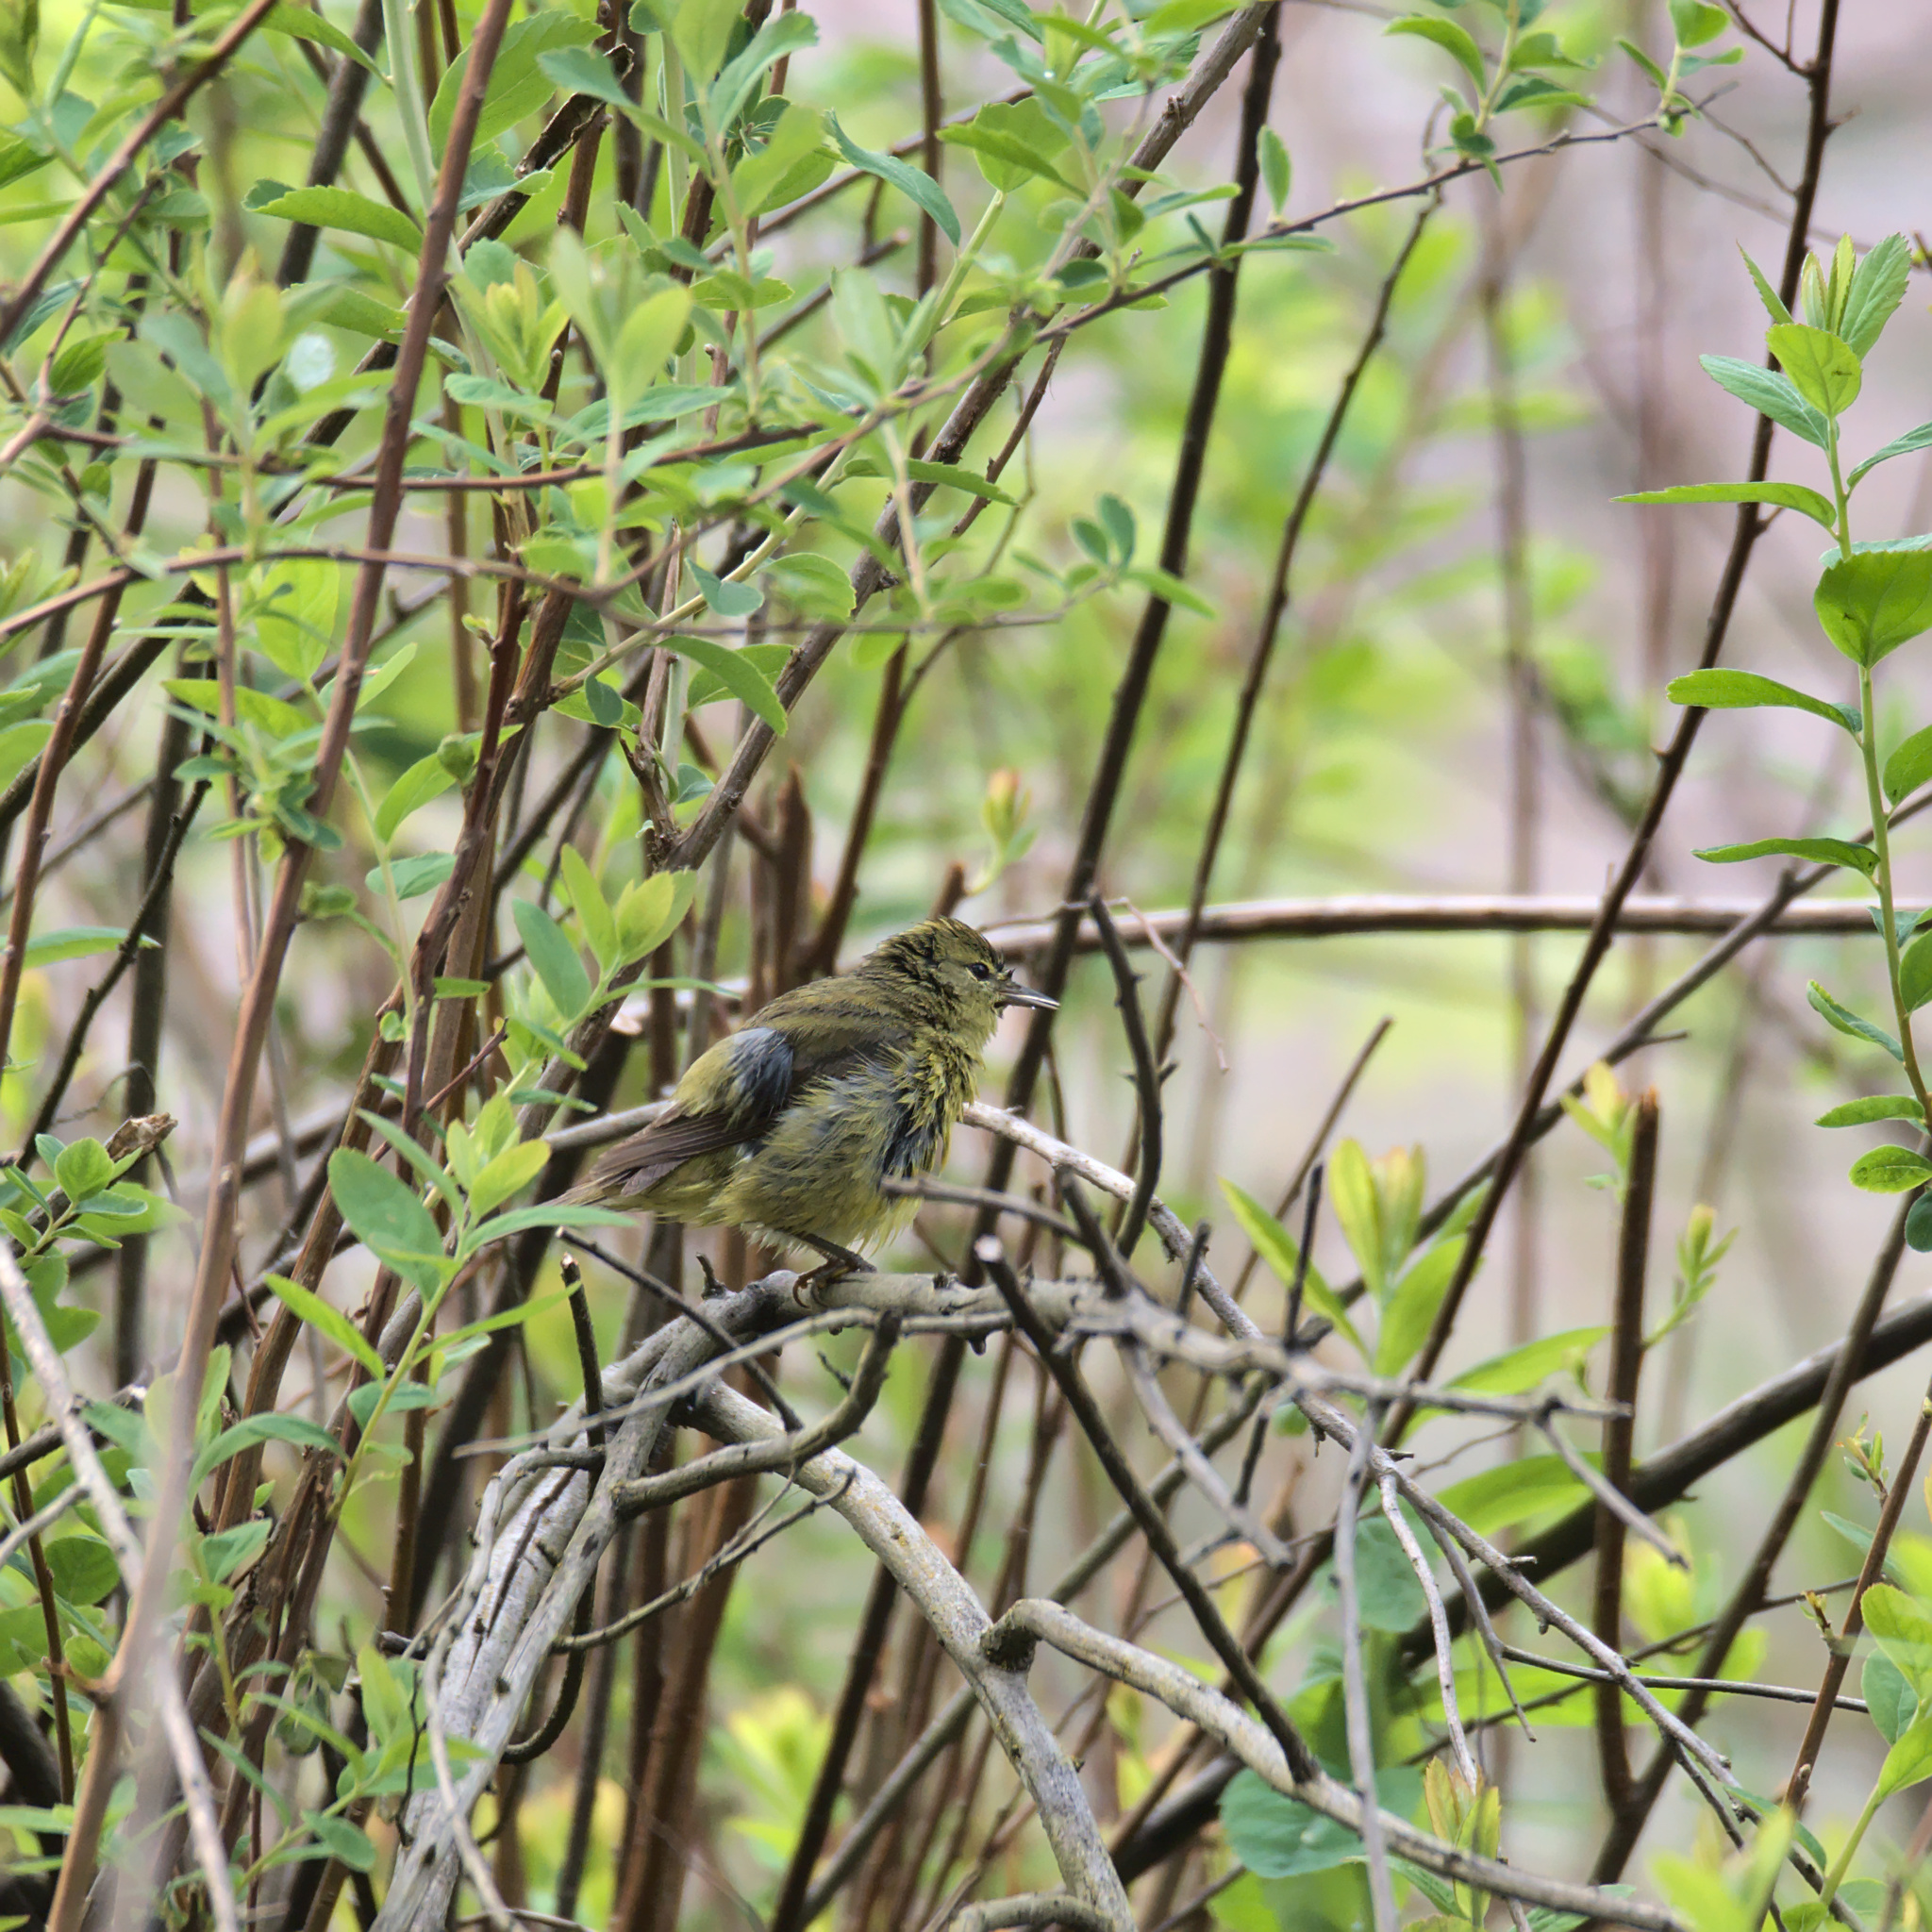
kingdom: Animalia
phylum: Chordata
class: Aves
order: Passeriformes
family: Parulidae
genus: Leiothlypis
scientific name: Leiothlypis celata
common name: Orange-crowned warbler
